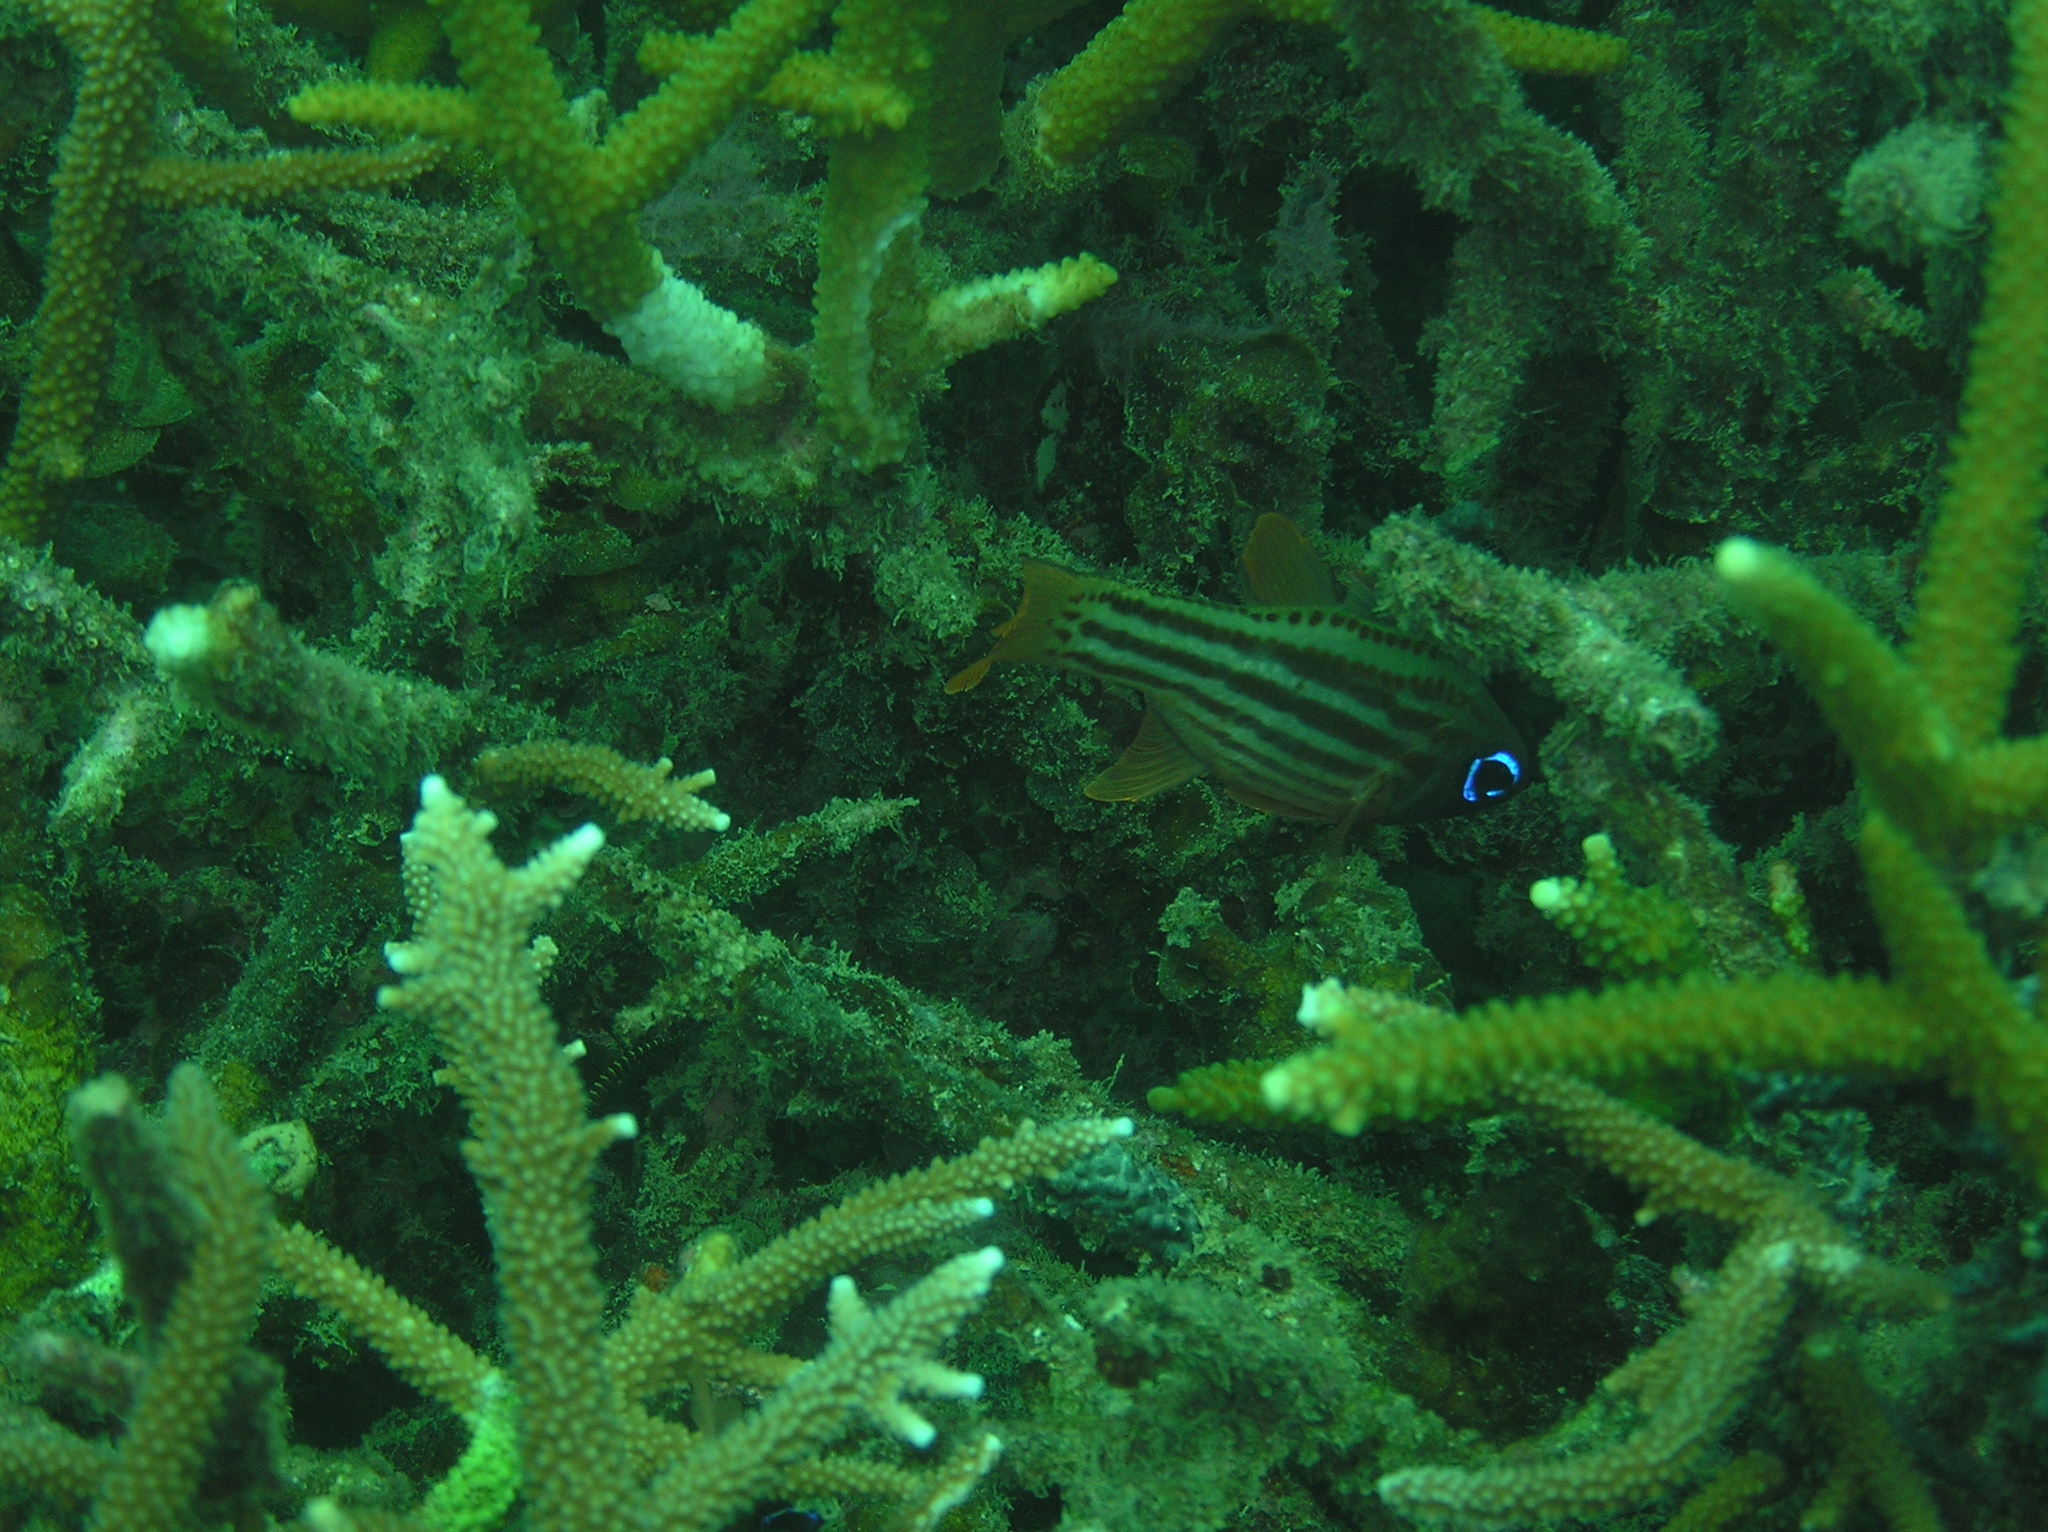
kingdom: Animalia
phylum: Chordata
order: Perciformes
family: Apogonidae
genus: Ostorhinchus
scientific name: Ostorhinchus compressus
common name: Ochre-striped cardinalfish
